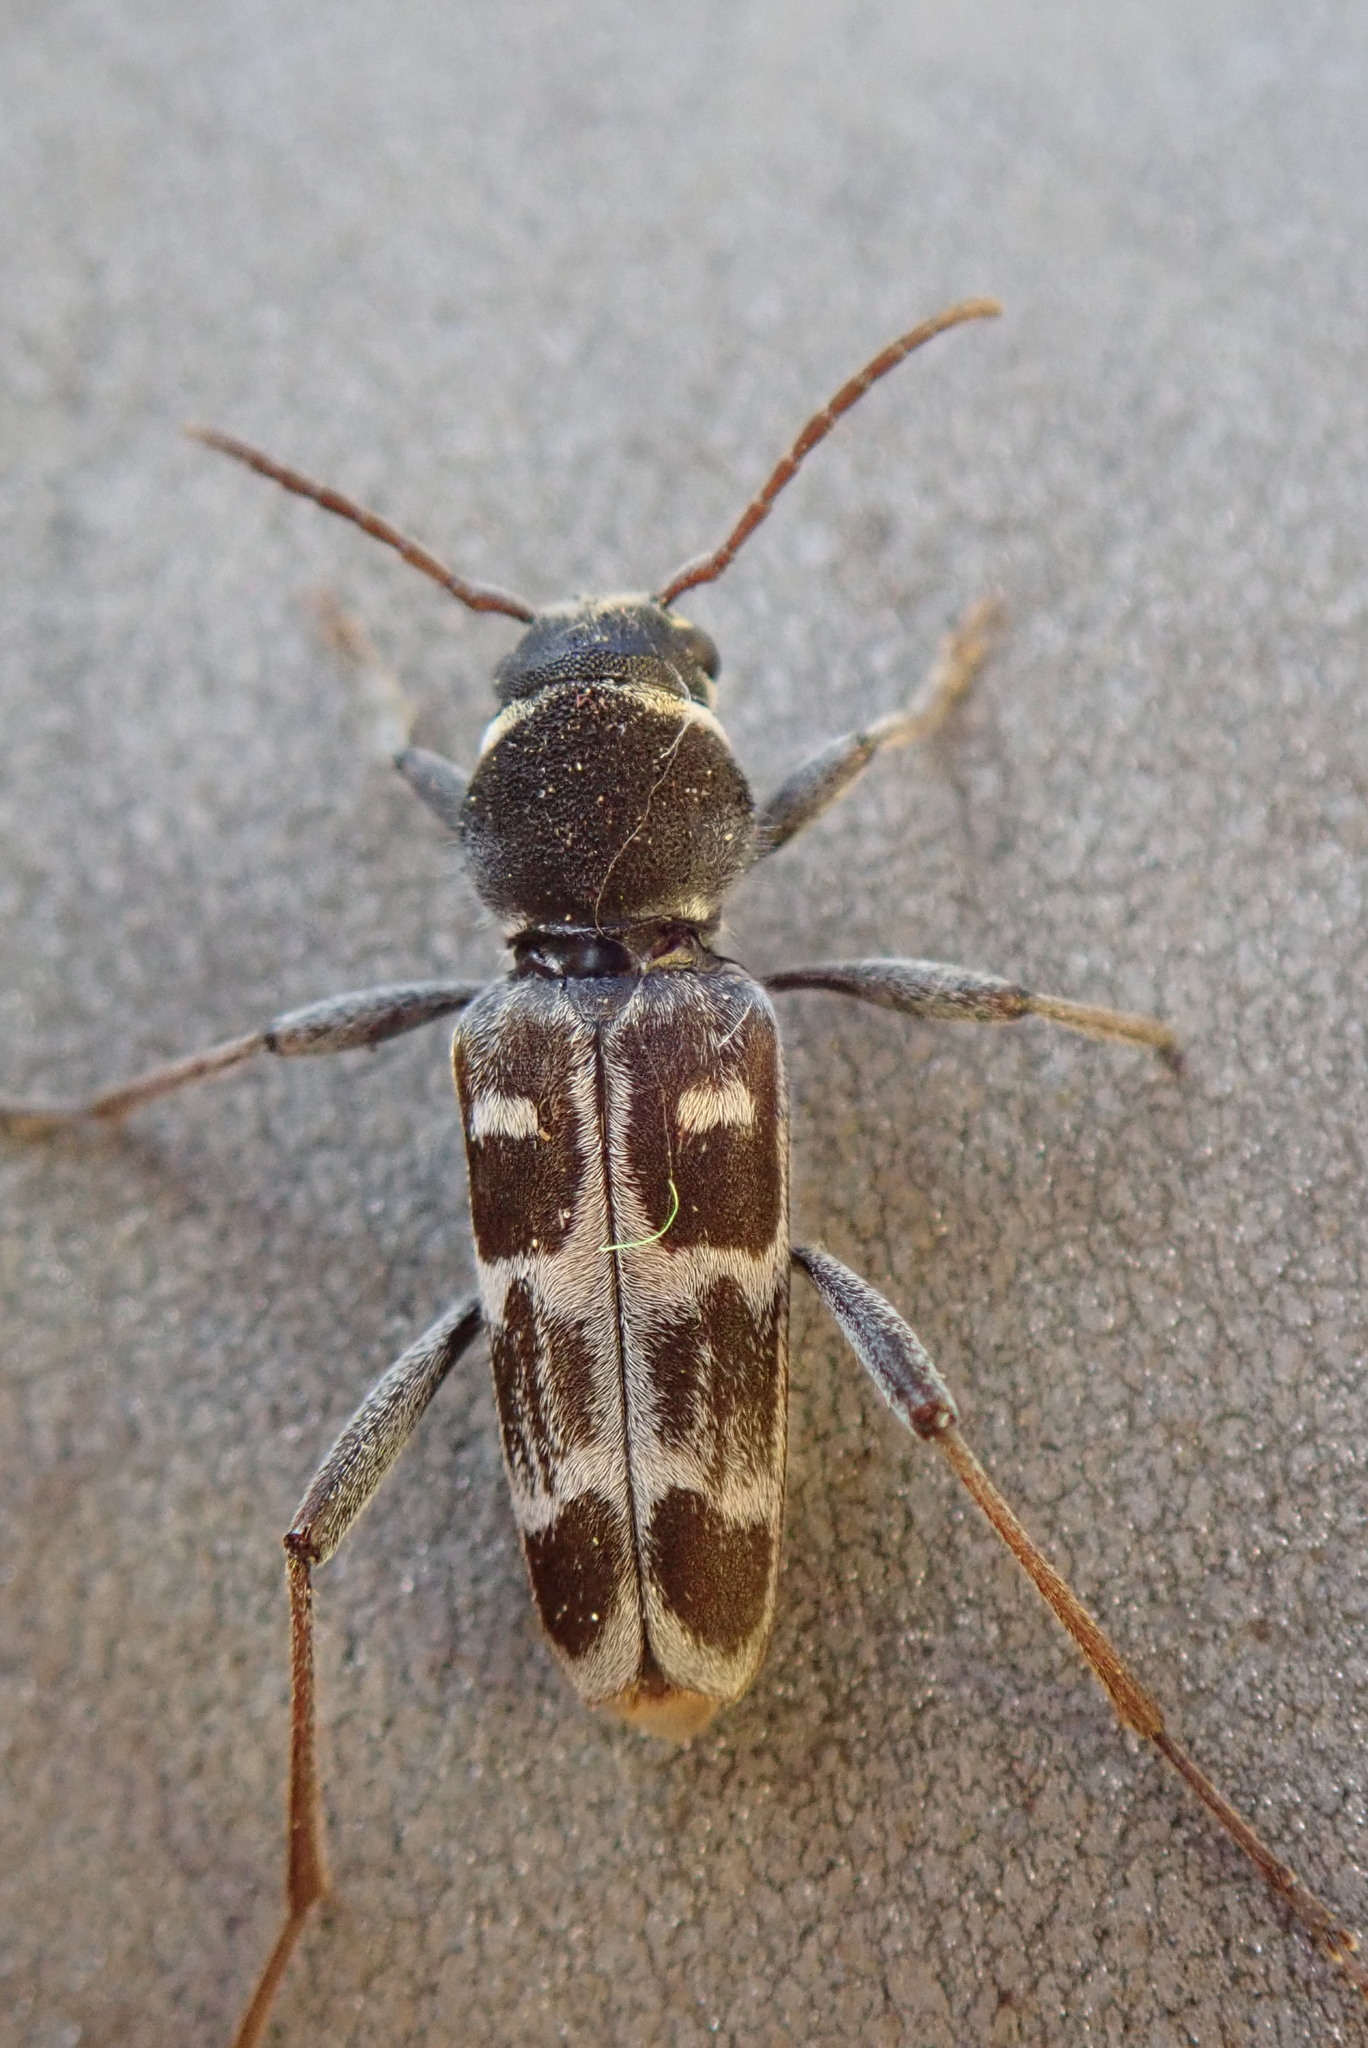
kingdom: Animalia
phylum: Arthropoda
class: Insecta
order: Coleoptera
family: Cerambycidae
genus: Xylotrechus
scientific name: Xylotrechus integer
